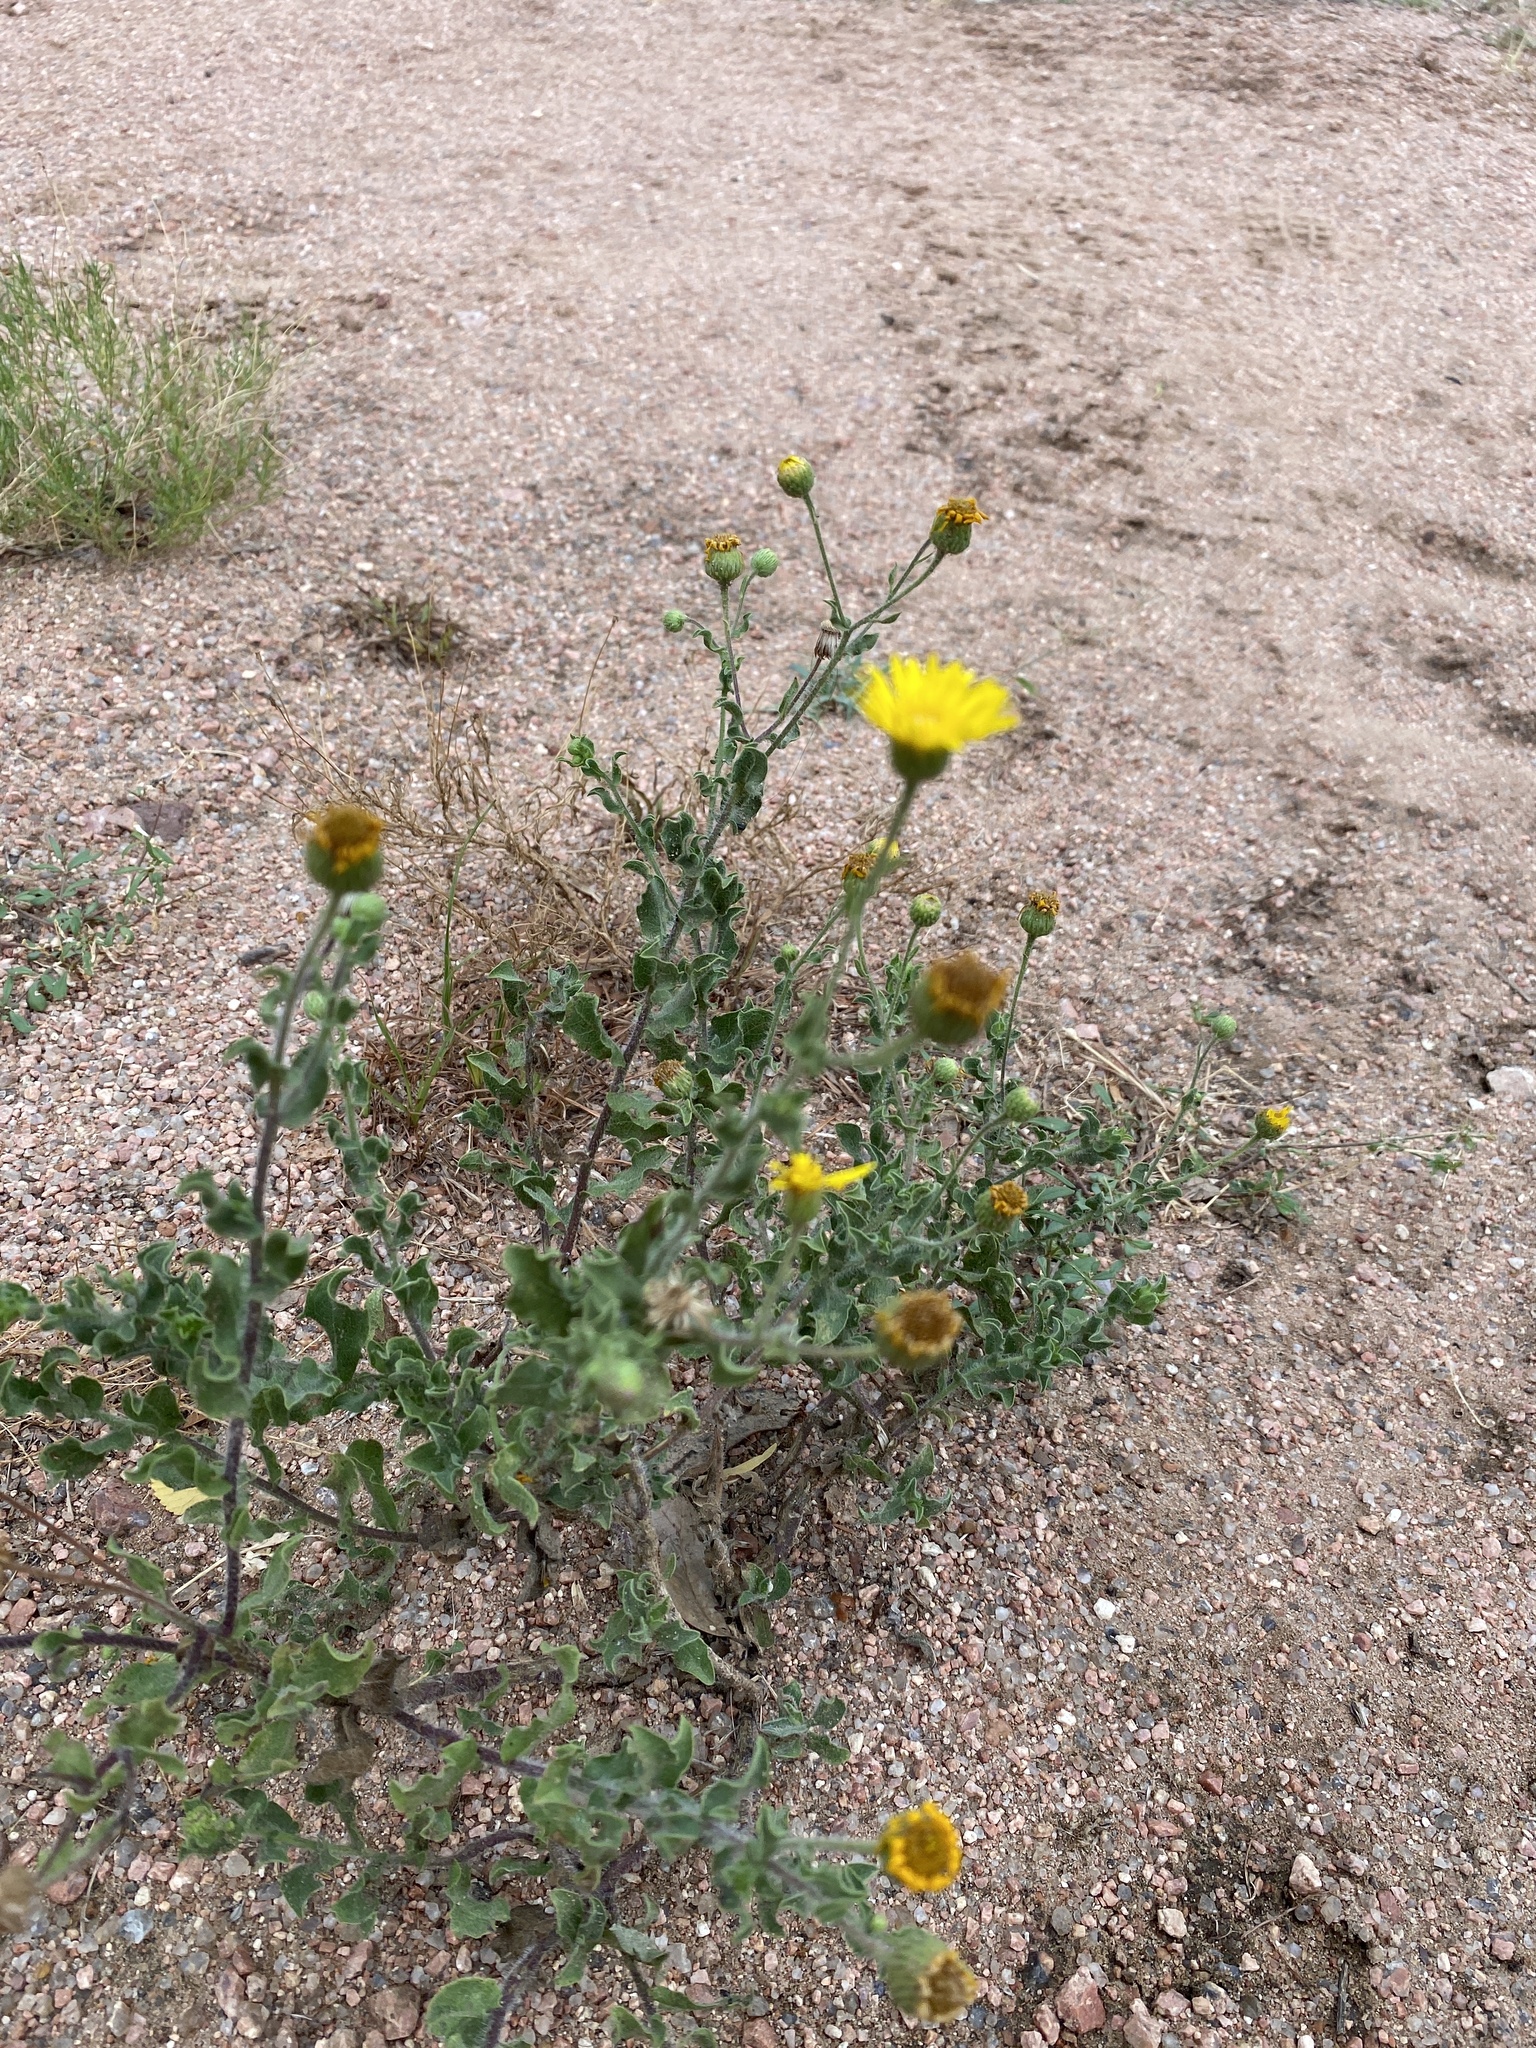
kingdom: Plantae
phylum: Tracheophyta
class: Magnoliopsida
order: Asterales
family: Asteraceae
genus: Heterotheca
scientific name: Heterotheca subaxillaris
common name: Camphorweed
